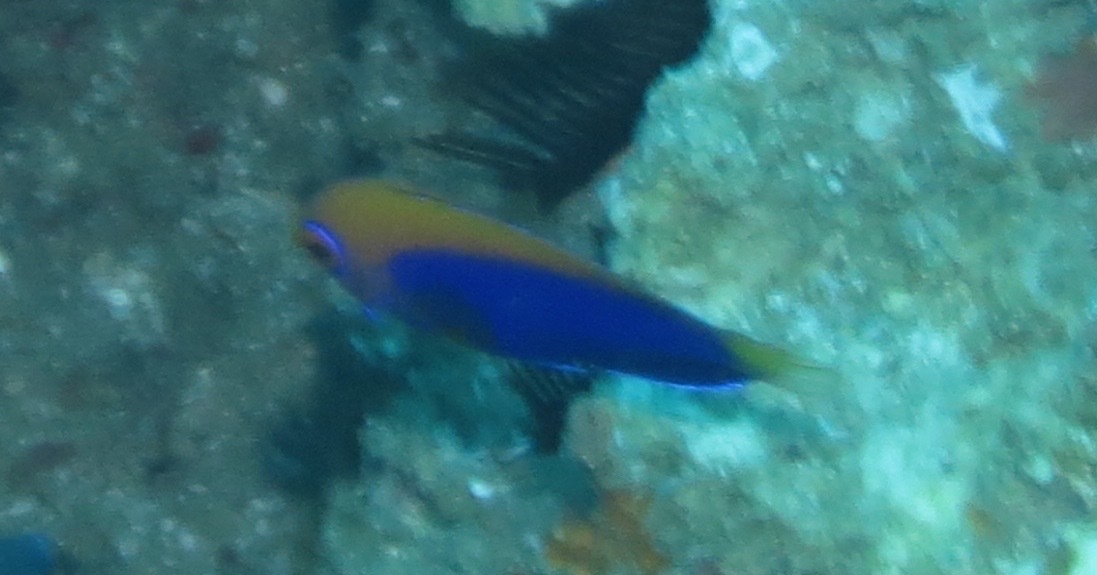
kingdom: Animalia
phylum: Chordata
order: Perciformes
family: Pomacanthidae
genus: Centropyge
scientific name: Centropyge acanthops
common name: African pygmy angelfish
